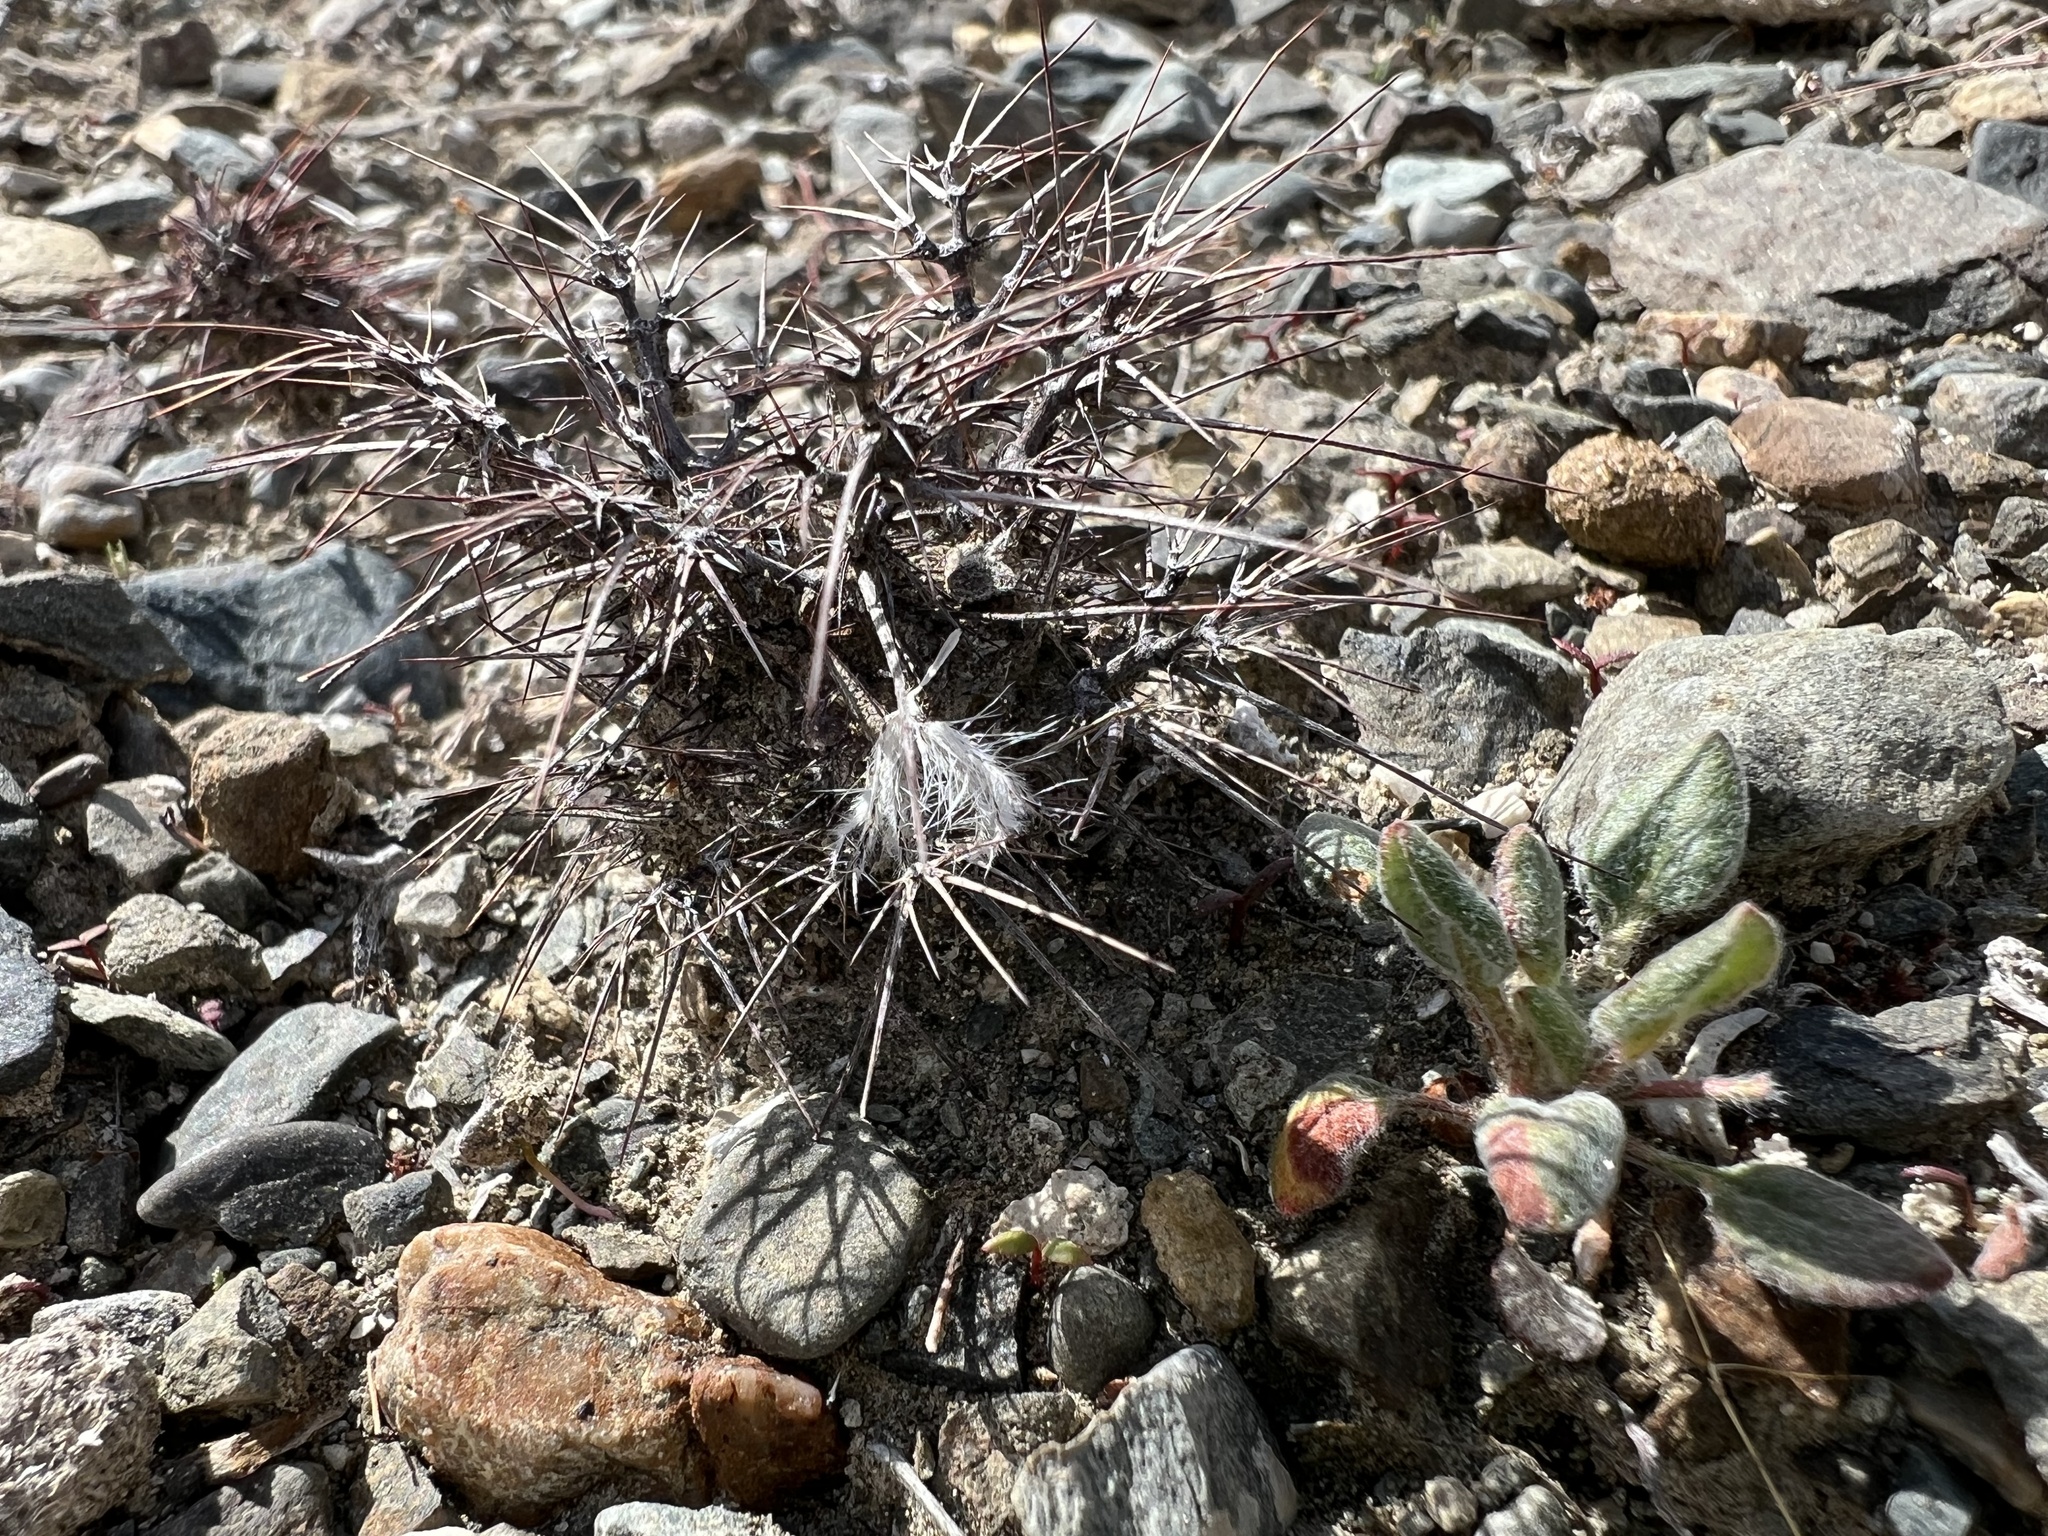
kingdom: Plantae
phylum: Tracheophyta
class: Magnoliopsida
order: Caryophyllales
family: Polygonaceae
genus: Chorizanthe
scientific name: Chorizanthe rigida
